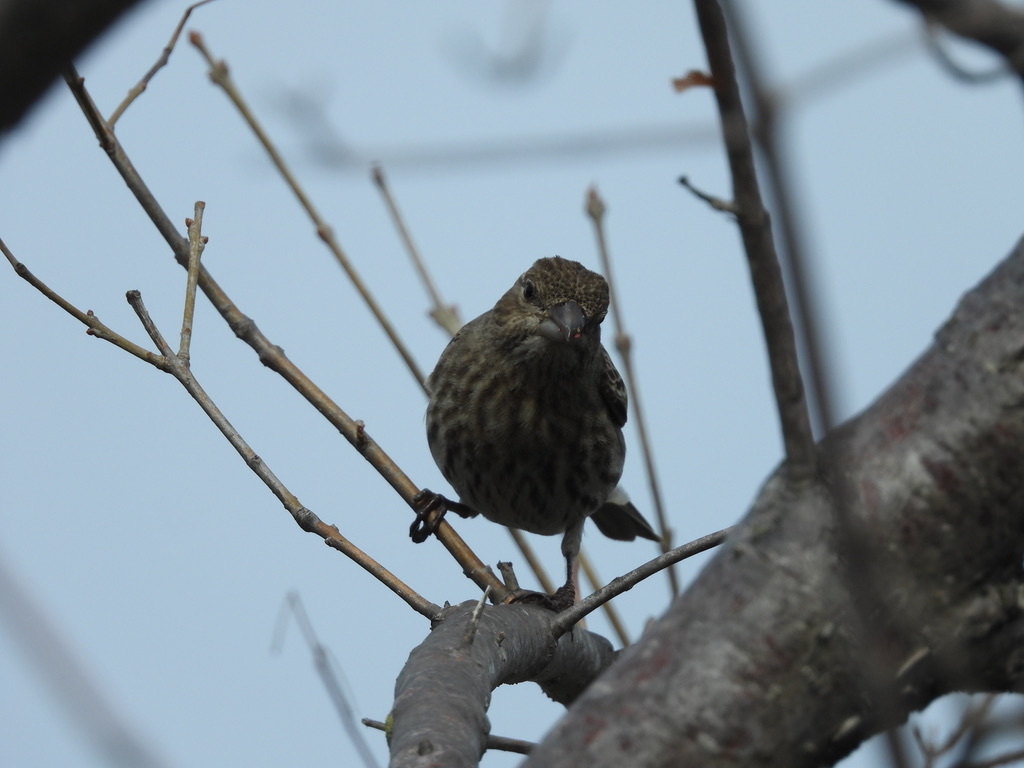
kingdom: Animalia
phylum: Chordata
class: Aves
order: Passeriformes
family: Fringillidae
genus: Haemorhous
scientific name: Haemorhous mexicanus
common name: House finch
